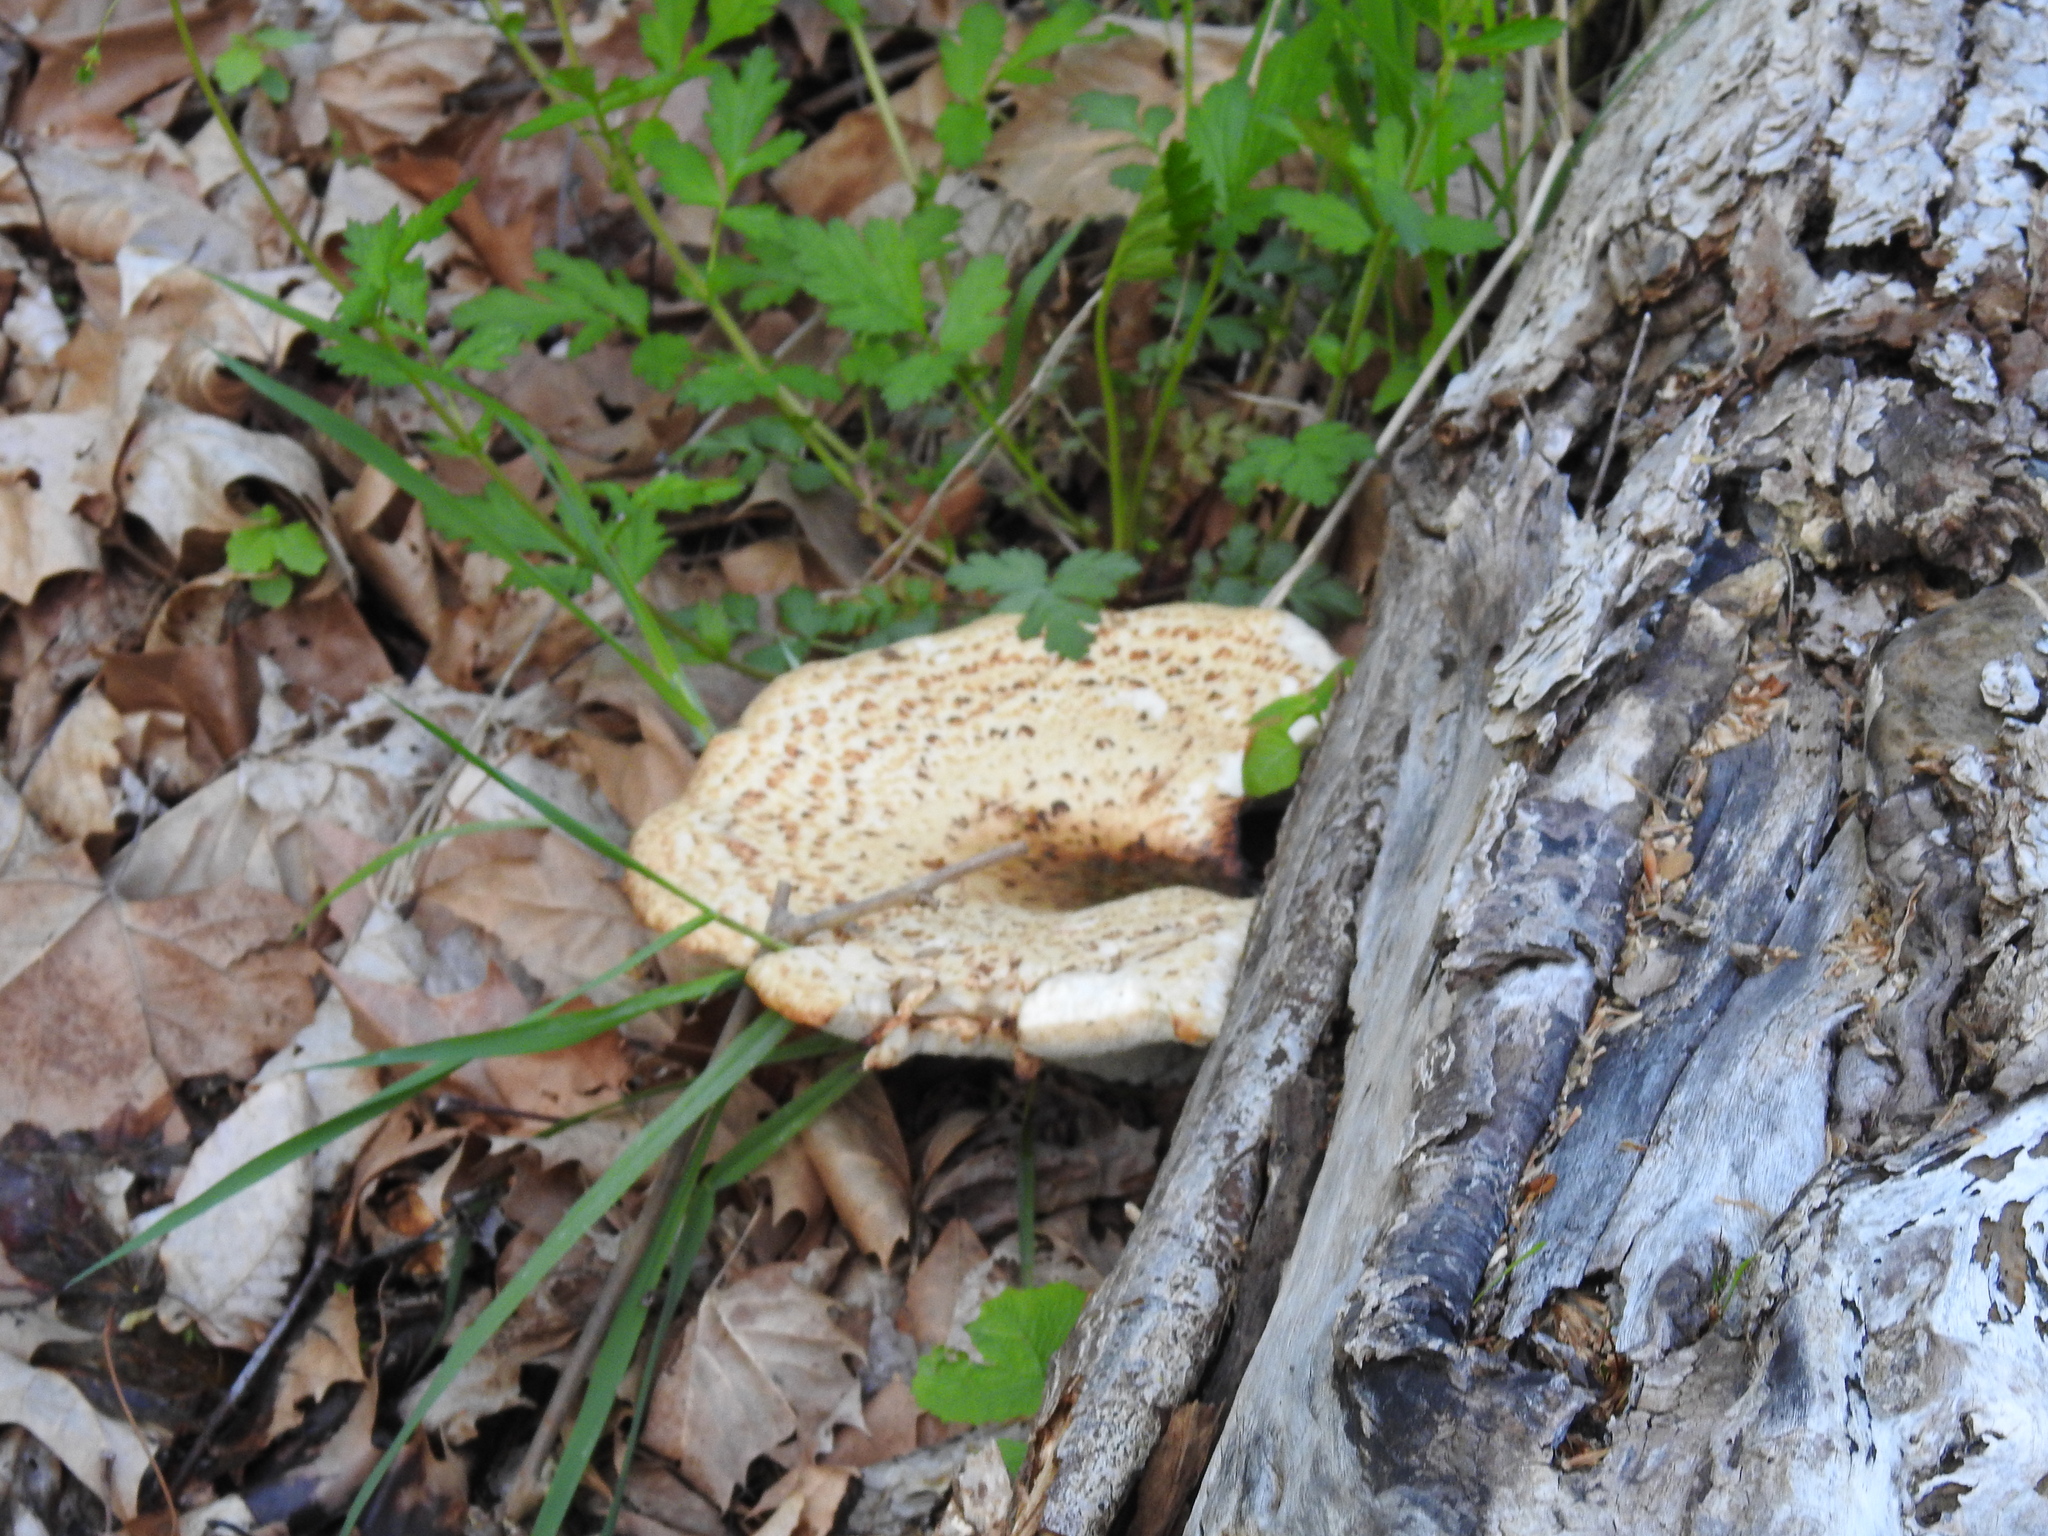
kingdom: Fungi
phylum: Basidiomycota
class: Agaricomycetes
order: Polyporales
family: Polyporaceae
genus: Cerioporus
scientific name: Cerioporus squamosus
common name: Dryad's saddle
